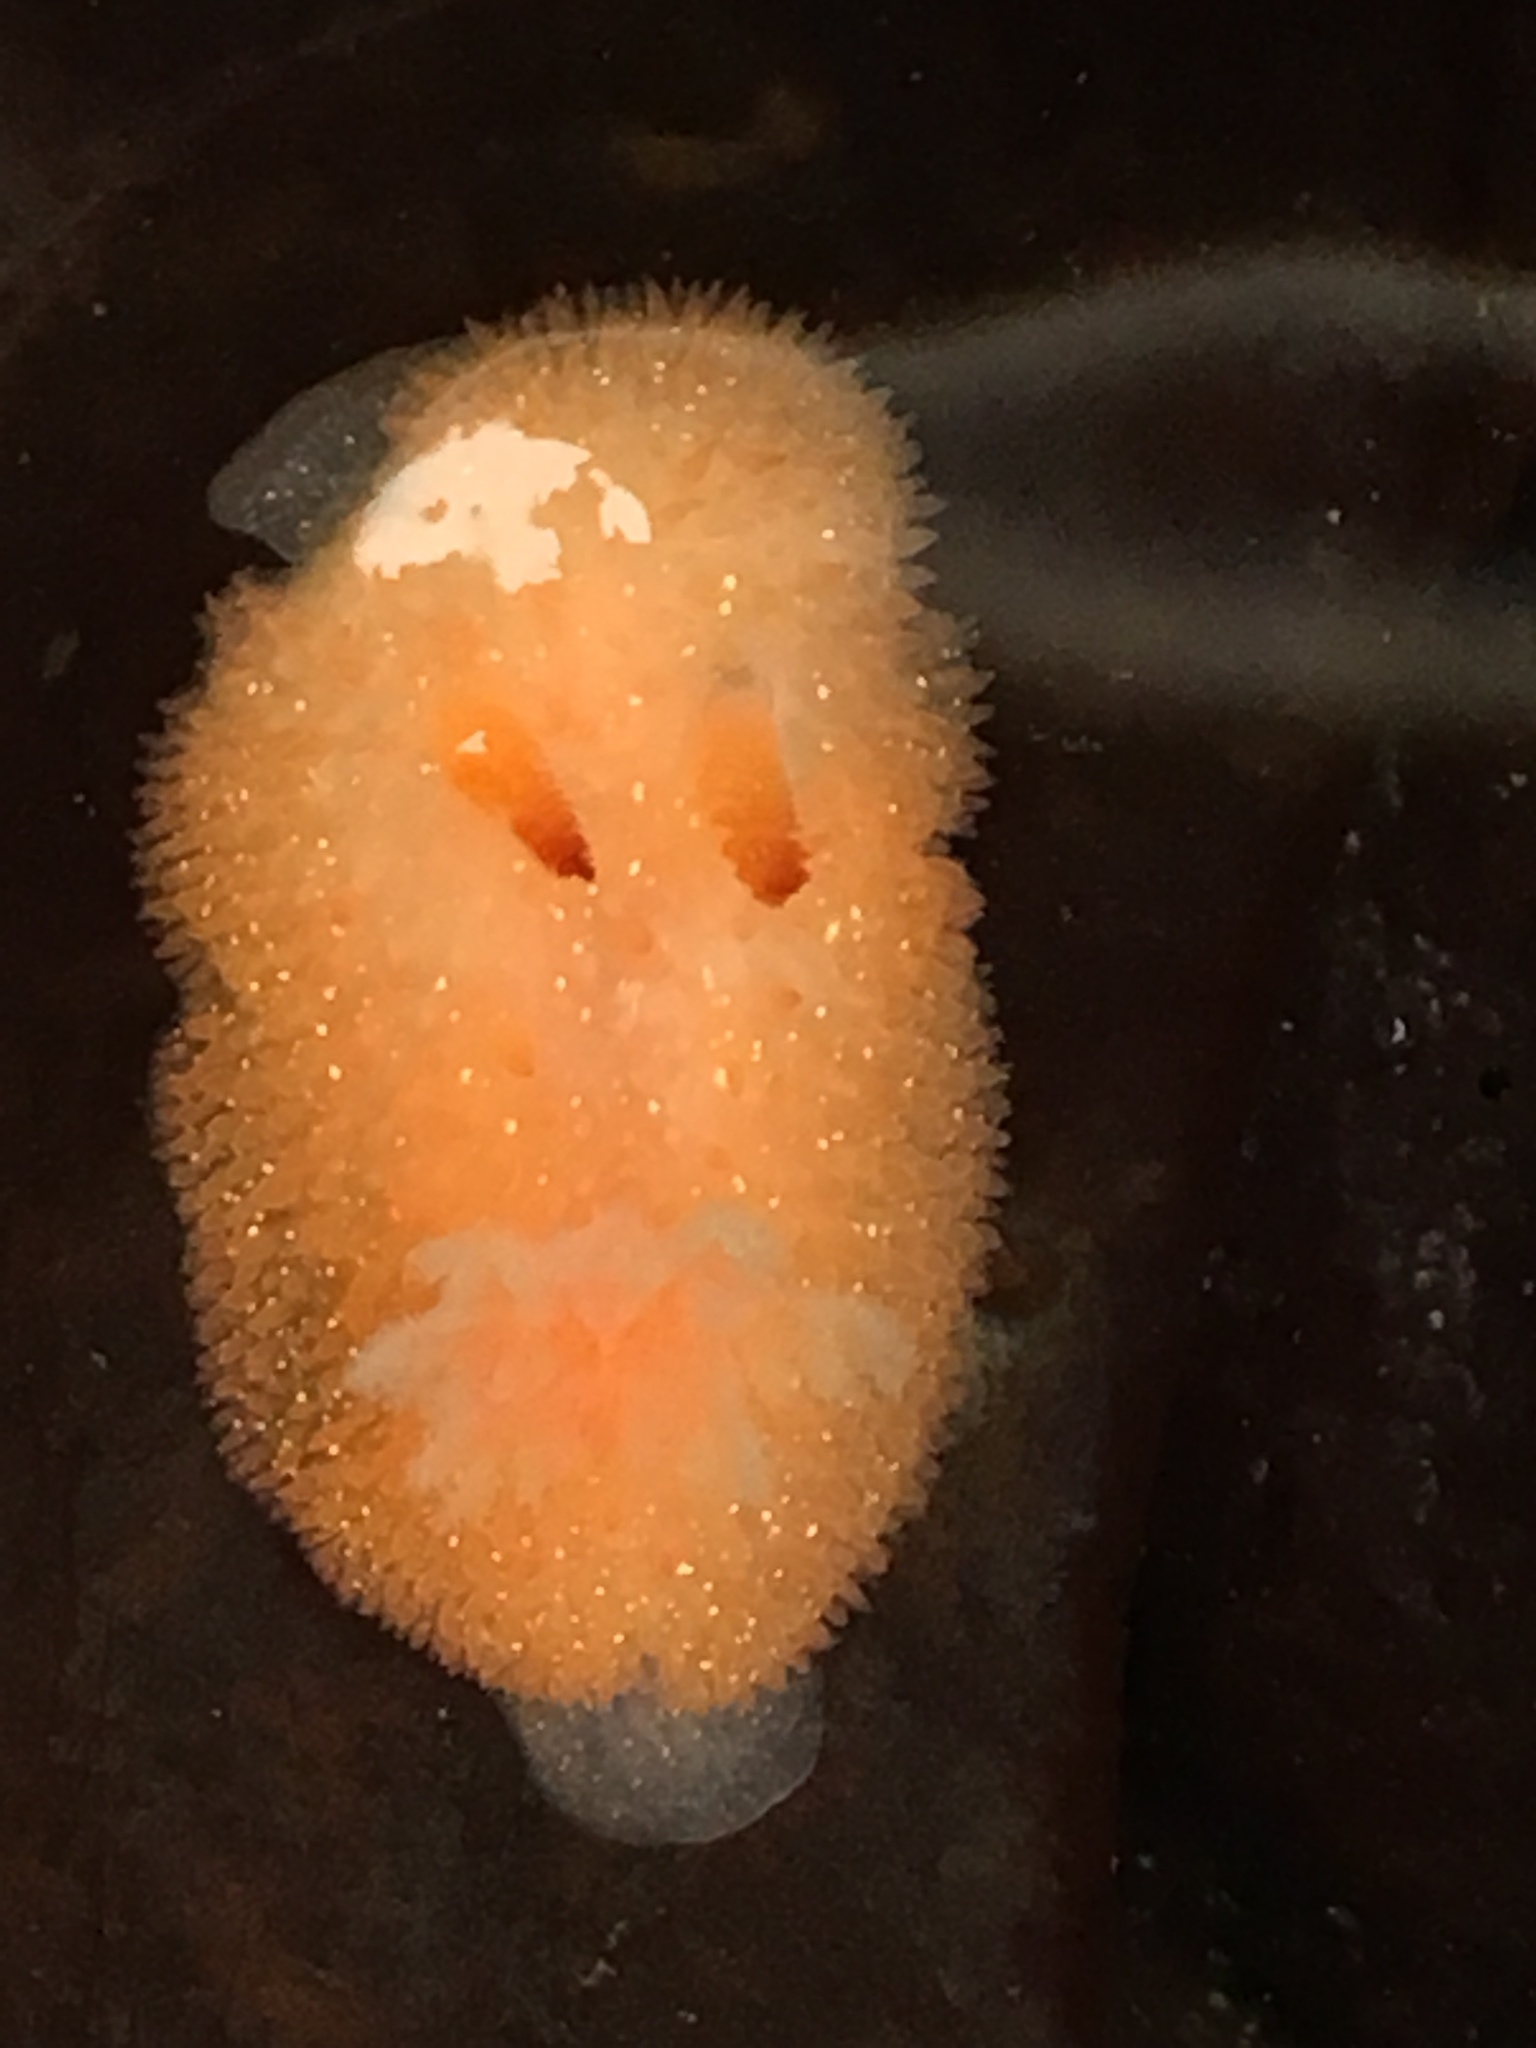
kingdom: Animalia
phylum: Mollusca
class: Gastropoda
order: Nudibranchia
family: Onchidorididae
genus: Acanthodoris
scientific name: Acanthodoris lutea
